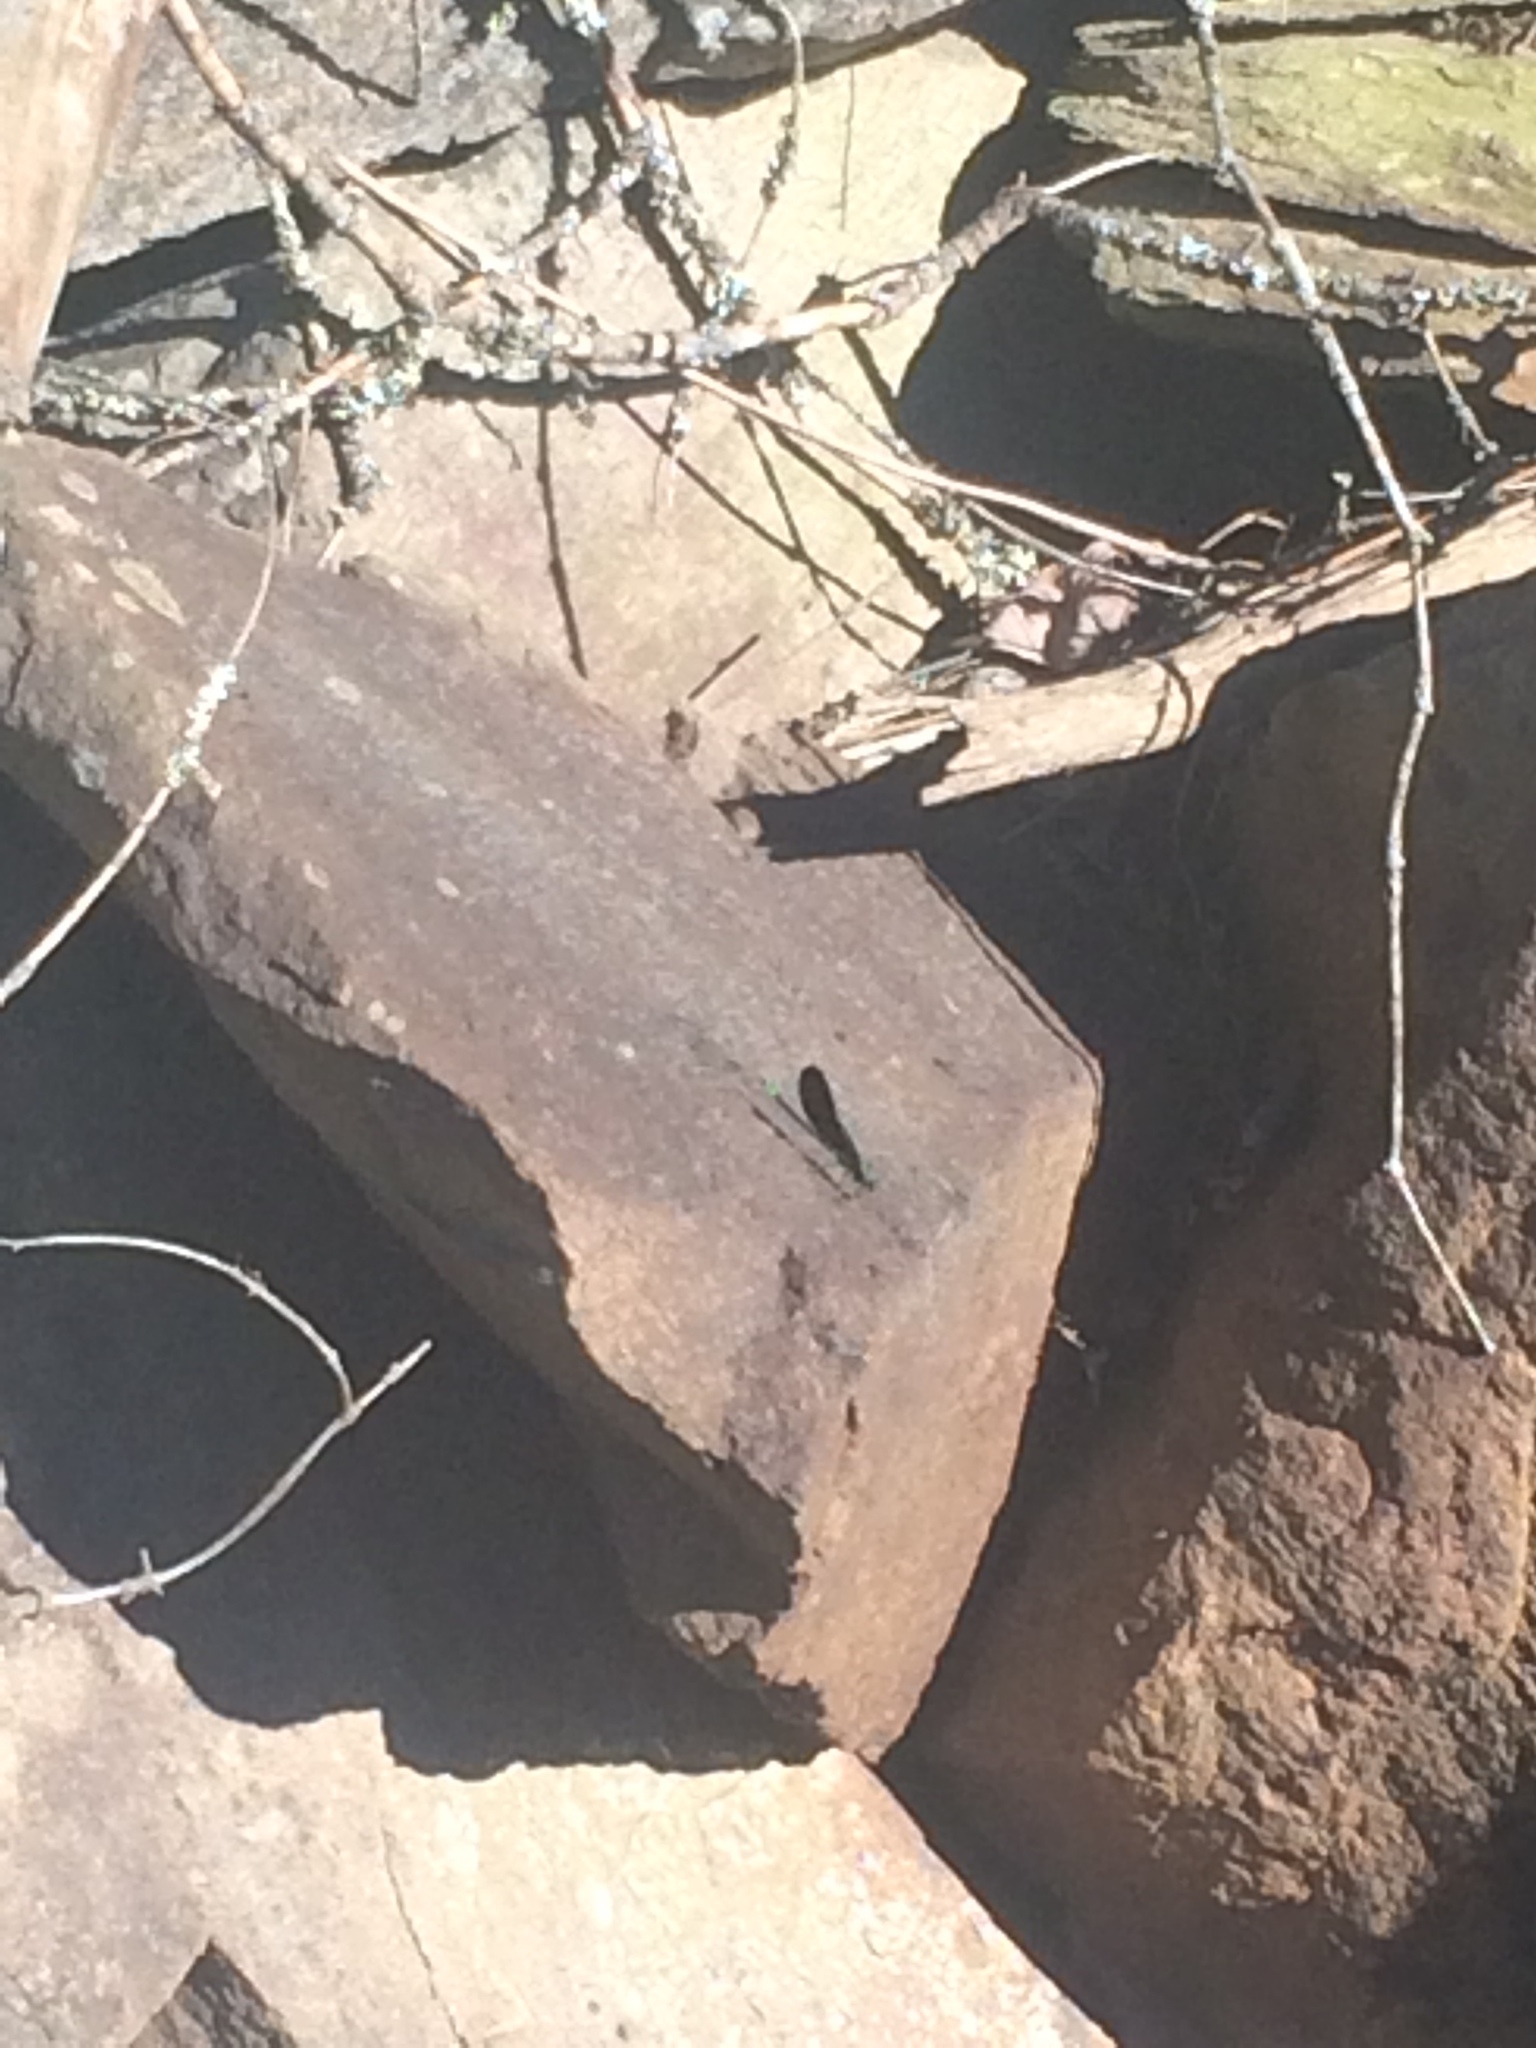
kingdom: Animalia
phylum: Arthropoda
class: Insecta
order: Odonata
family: Calopterygidae
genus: Calopteryx
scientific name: Calopteryx maculata
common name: Ebony jewelwing
